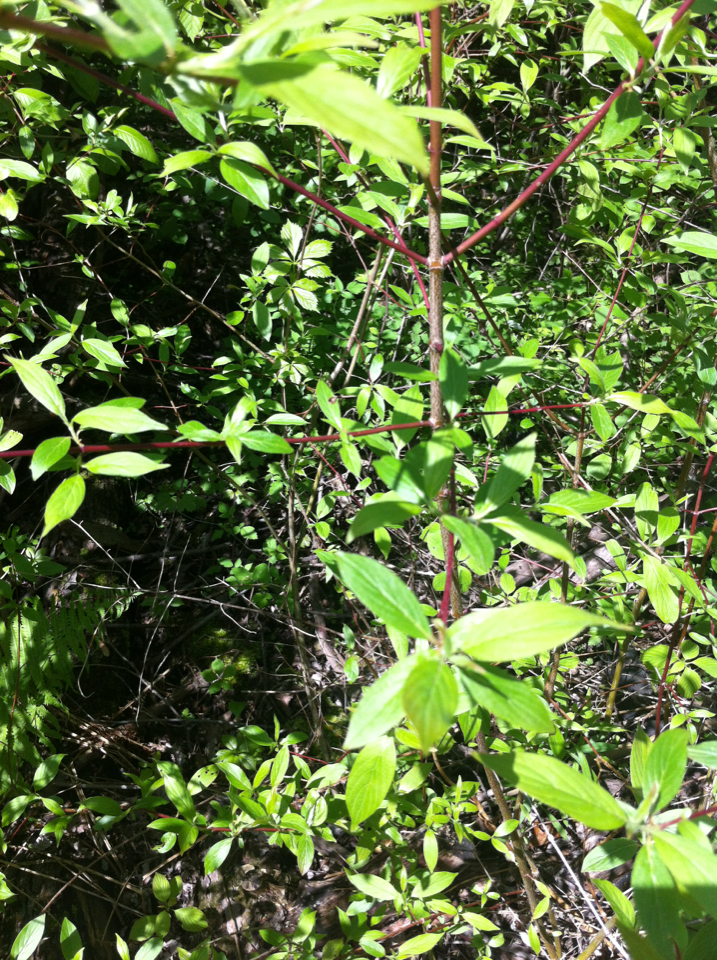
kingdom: Plantae
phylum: Tracheophyta
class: Magnoliopsida
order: Cornales
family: Cornaceae
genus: Cornus
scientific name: Cornus amomum
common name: Silky dogwood
